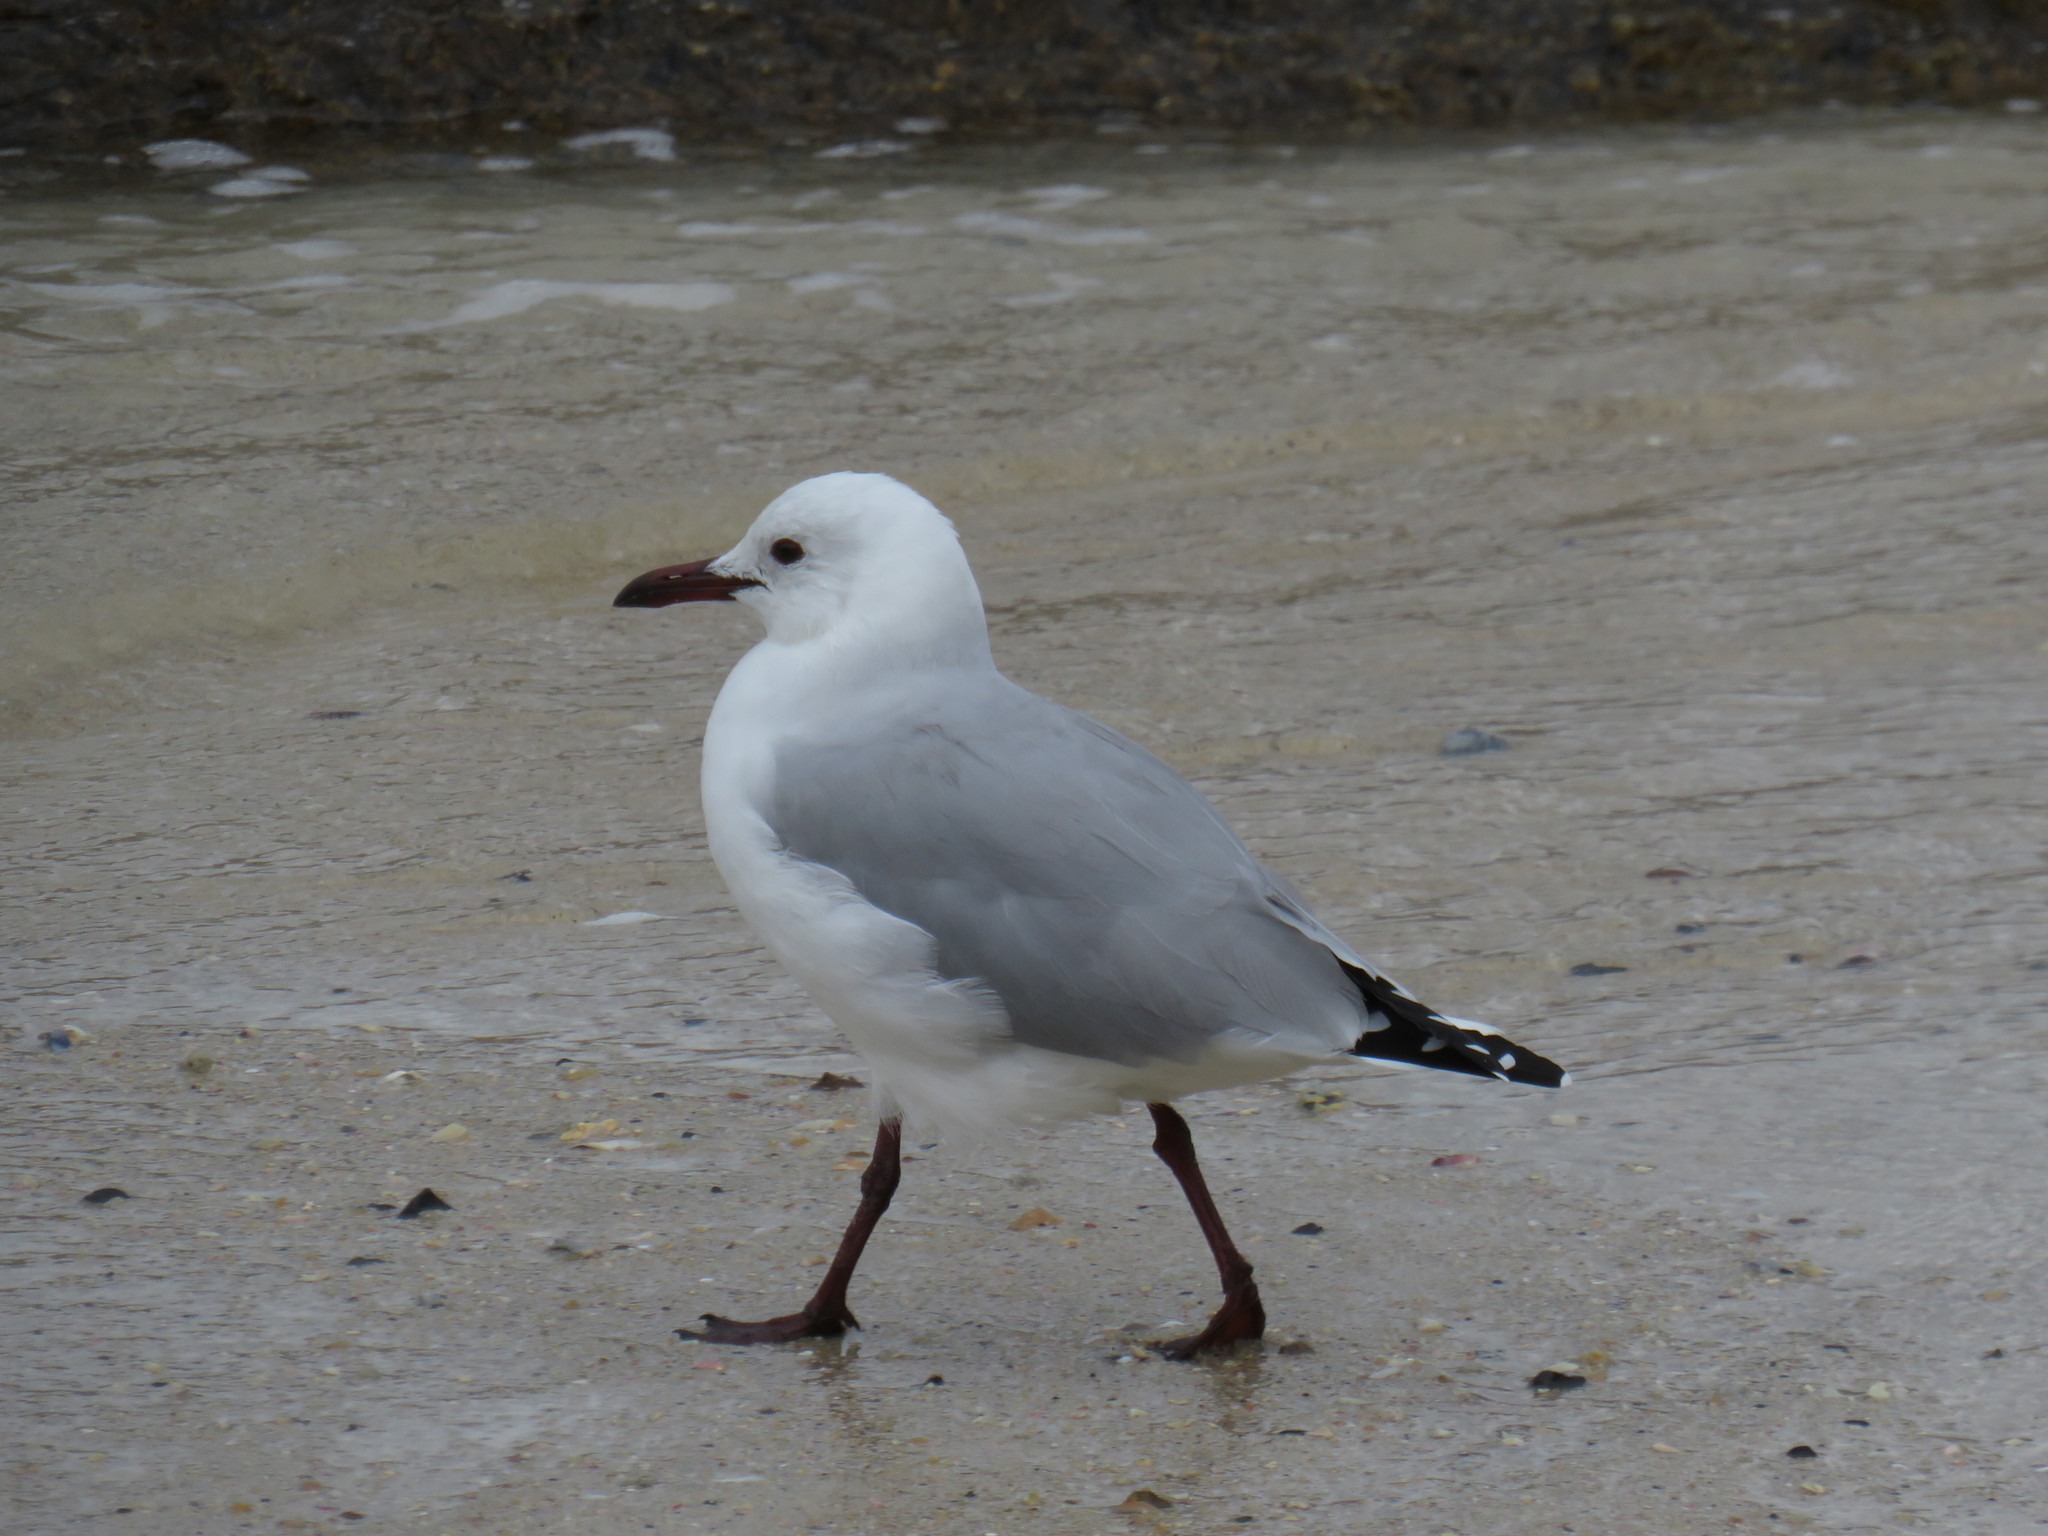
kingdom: Animalia
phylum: Chordata
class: Aves
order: Charadriiformes
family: Laridae
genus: Chroicocephalus
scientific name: Chroicocephalus hartlaubii
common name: Hartlaub's gull
